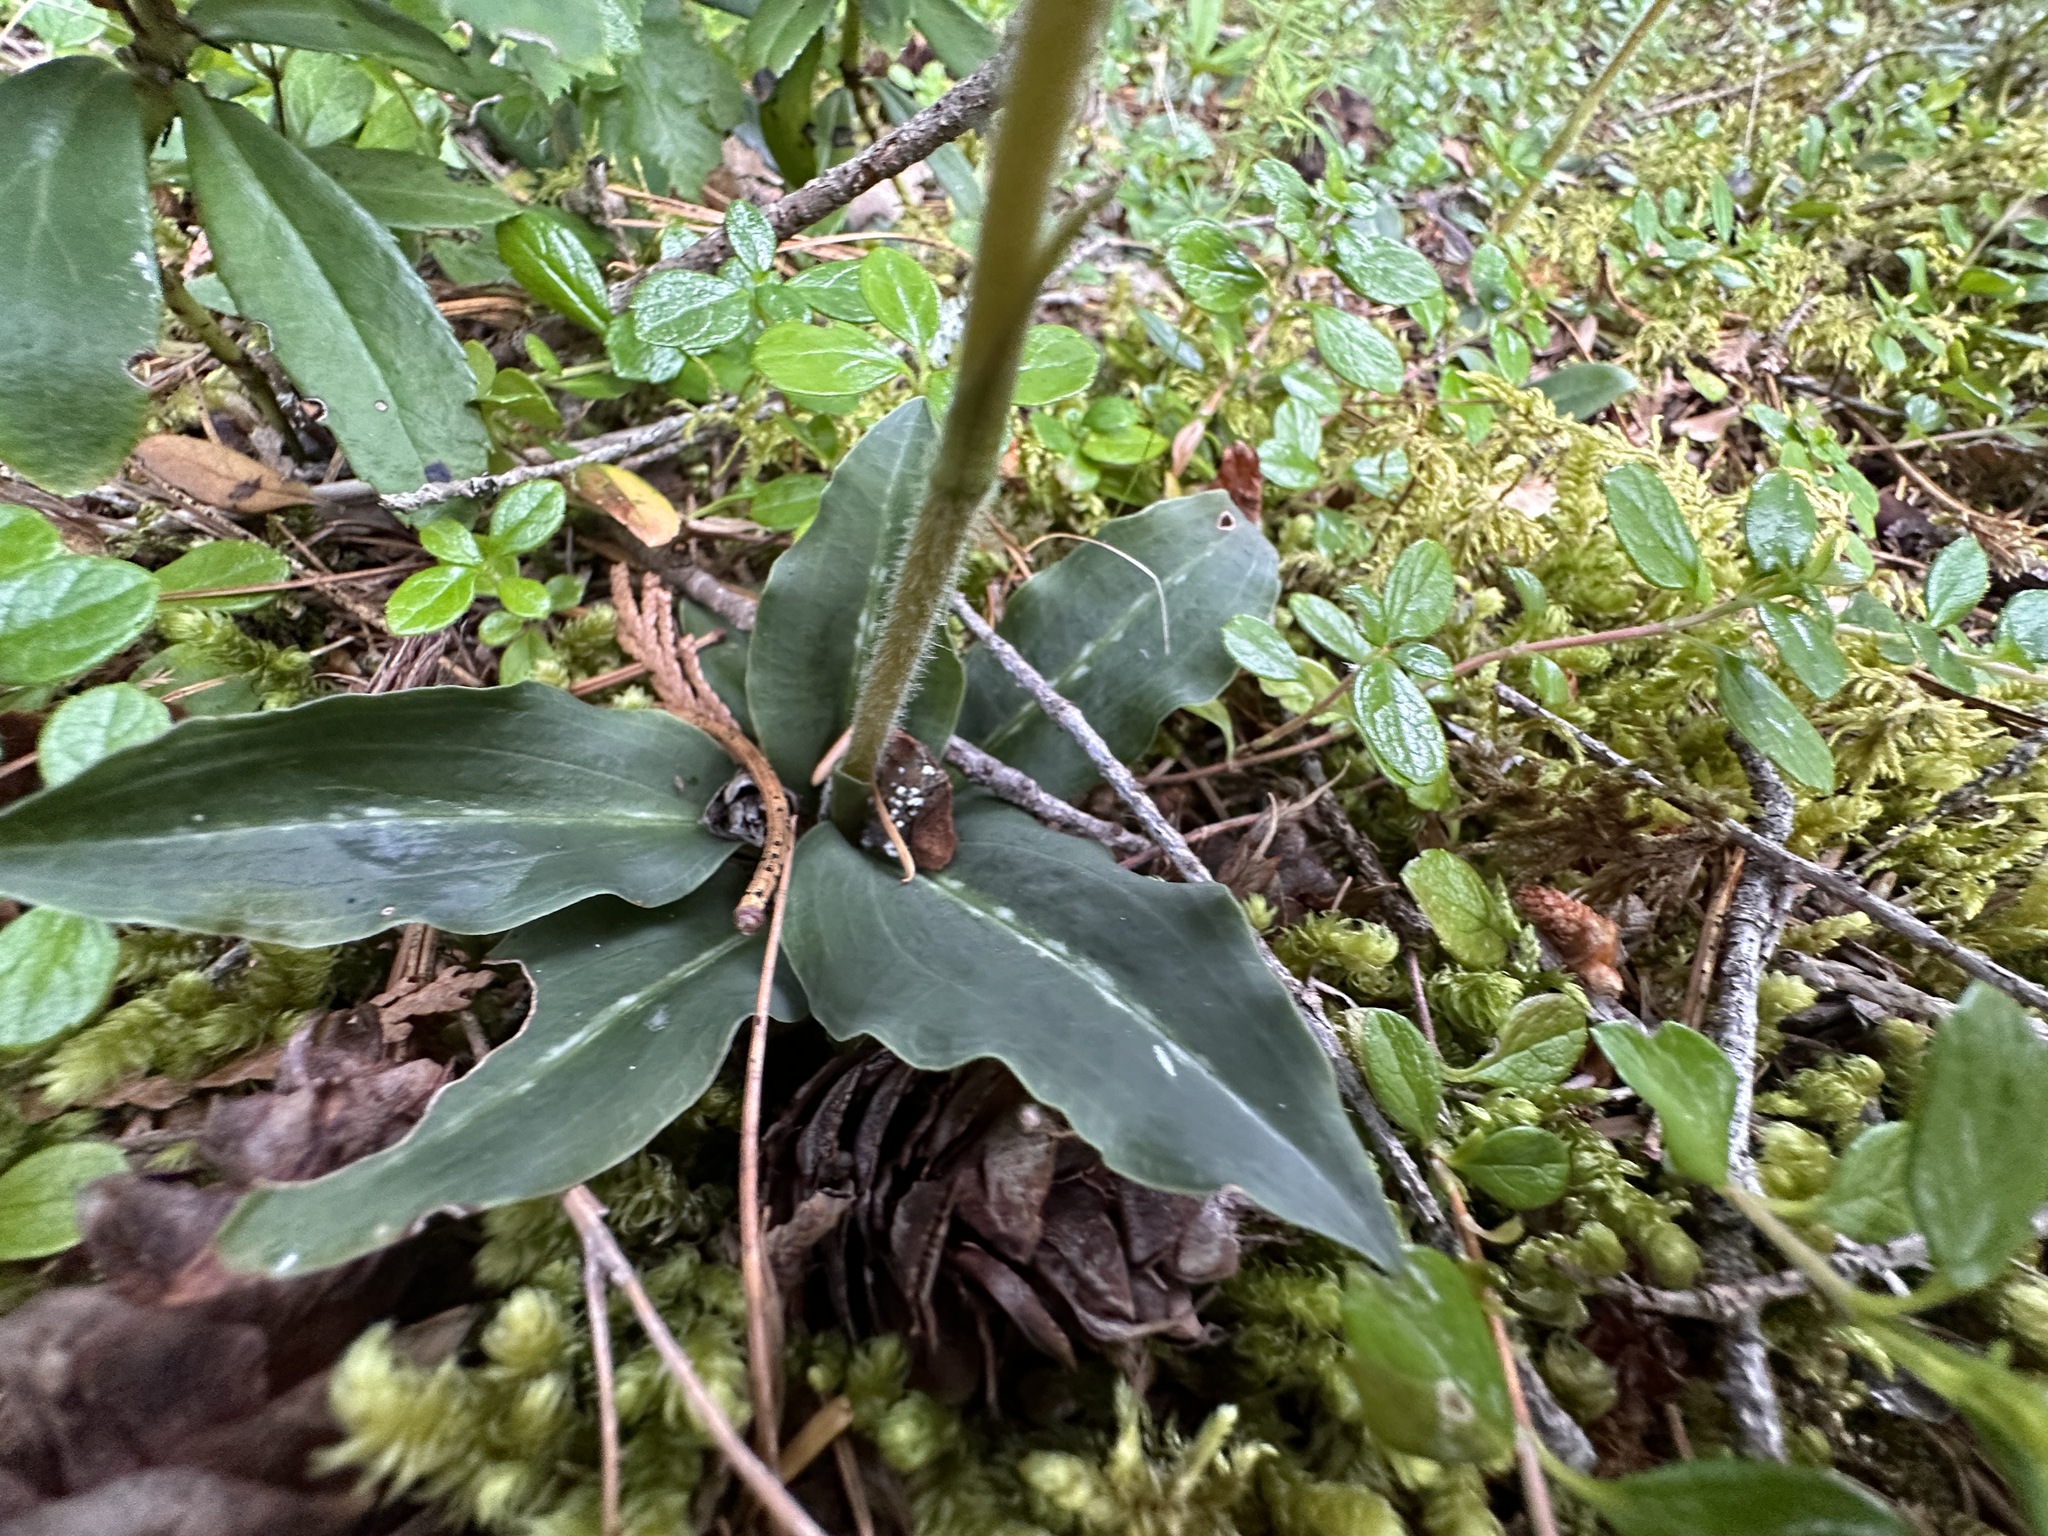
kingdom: Plantae
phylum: Tracheophyta
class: Liliopsida
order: Asparagales
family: Orchidaceae
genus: Goodyera
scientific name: Goodyera oblongifolia
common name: Giant rattlesnake-plantain
